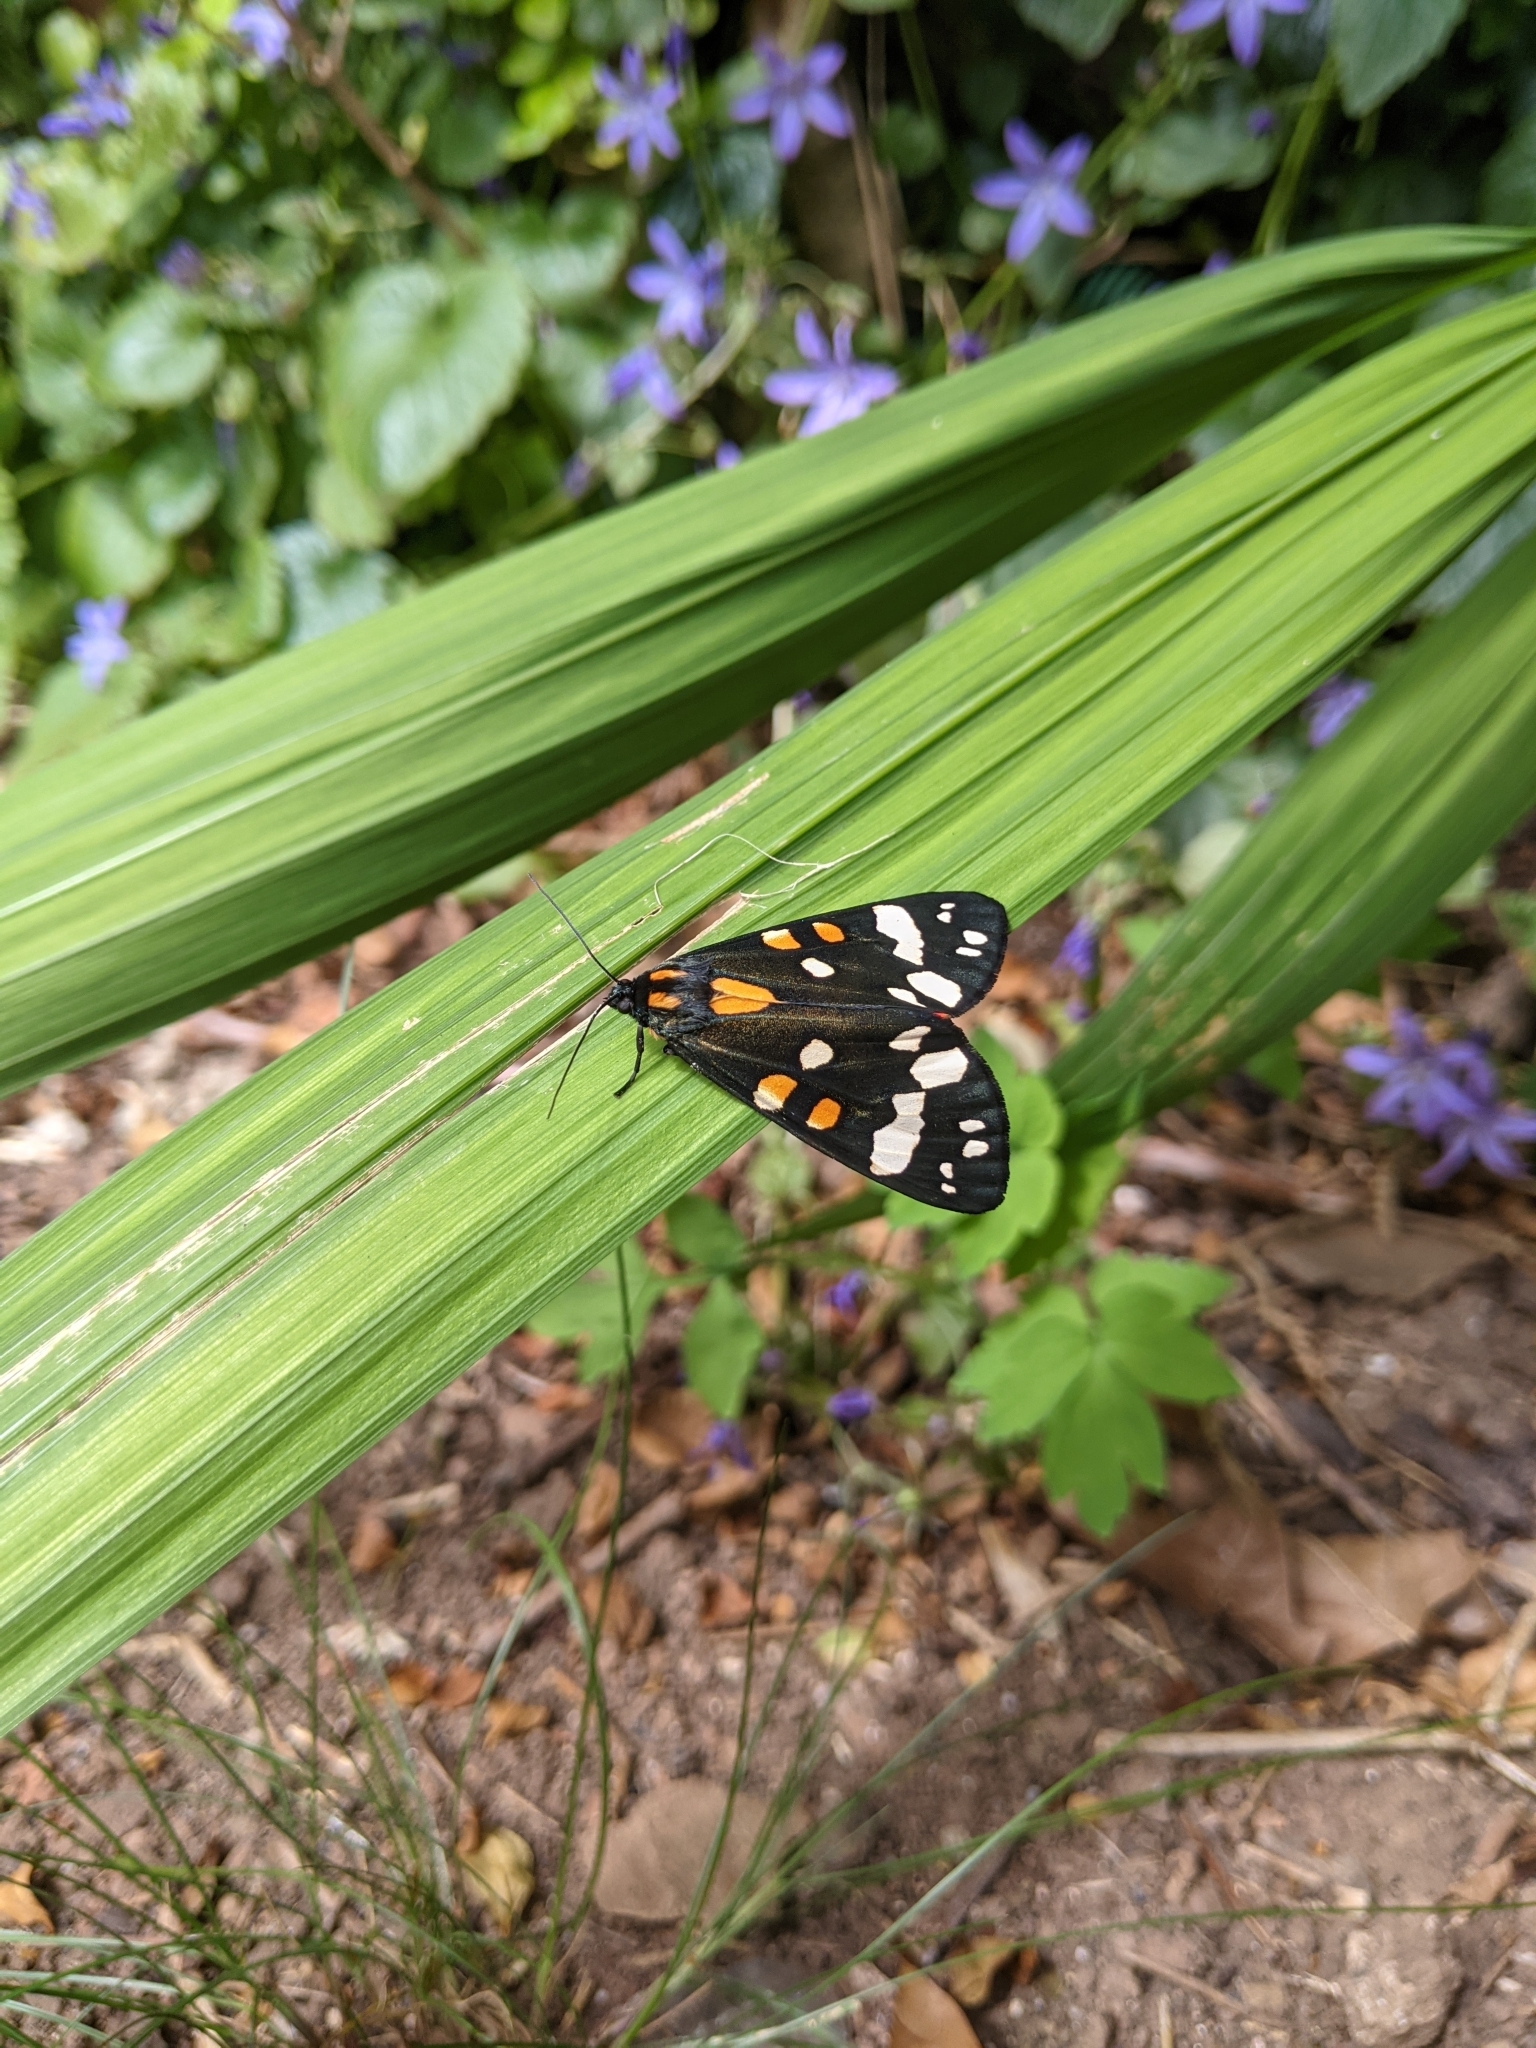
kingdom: Animalia
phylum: Arthropoda
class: Insecta
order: Lepidoptera
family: Erebidae
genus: Callimorpha
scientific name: Callimorpha dominula
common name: Scarlet tiger
